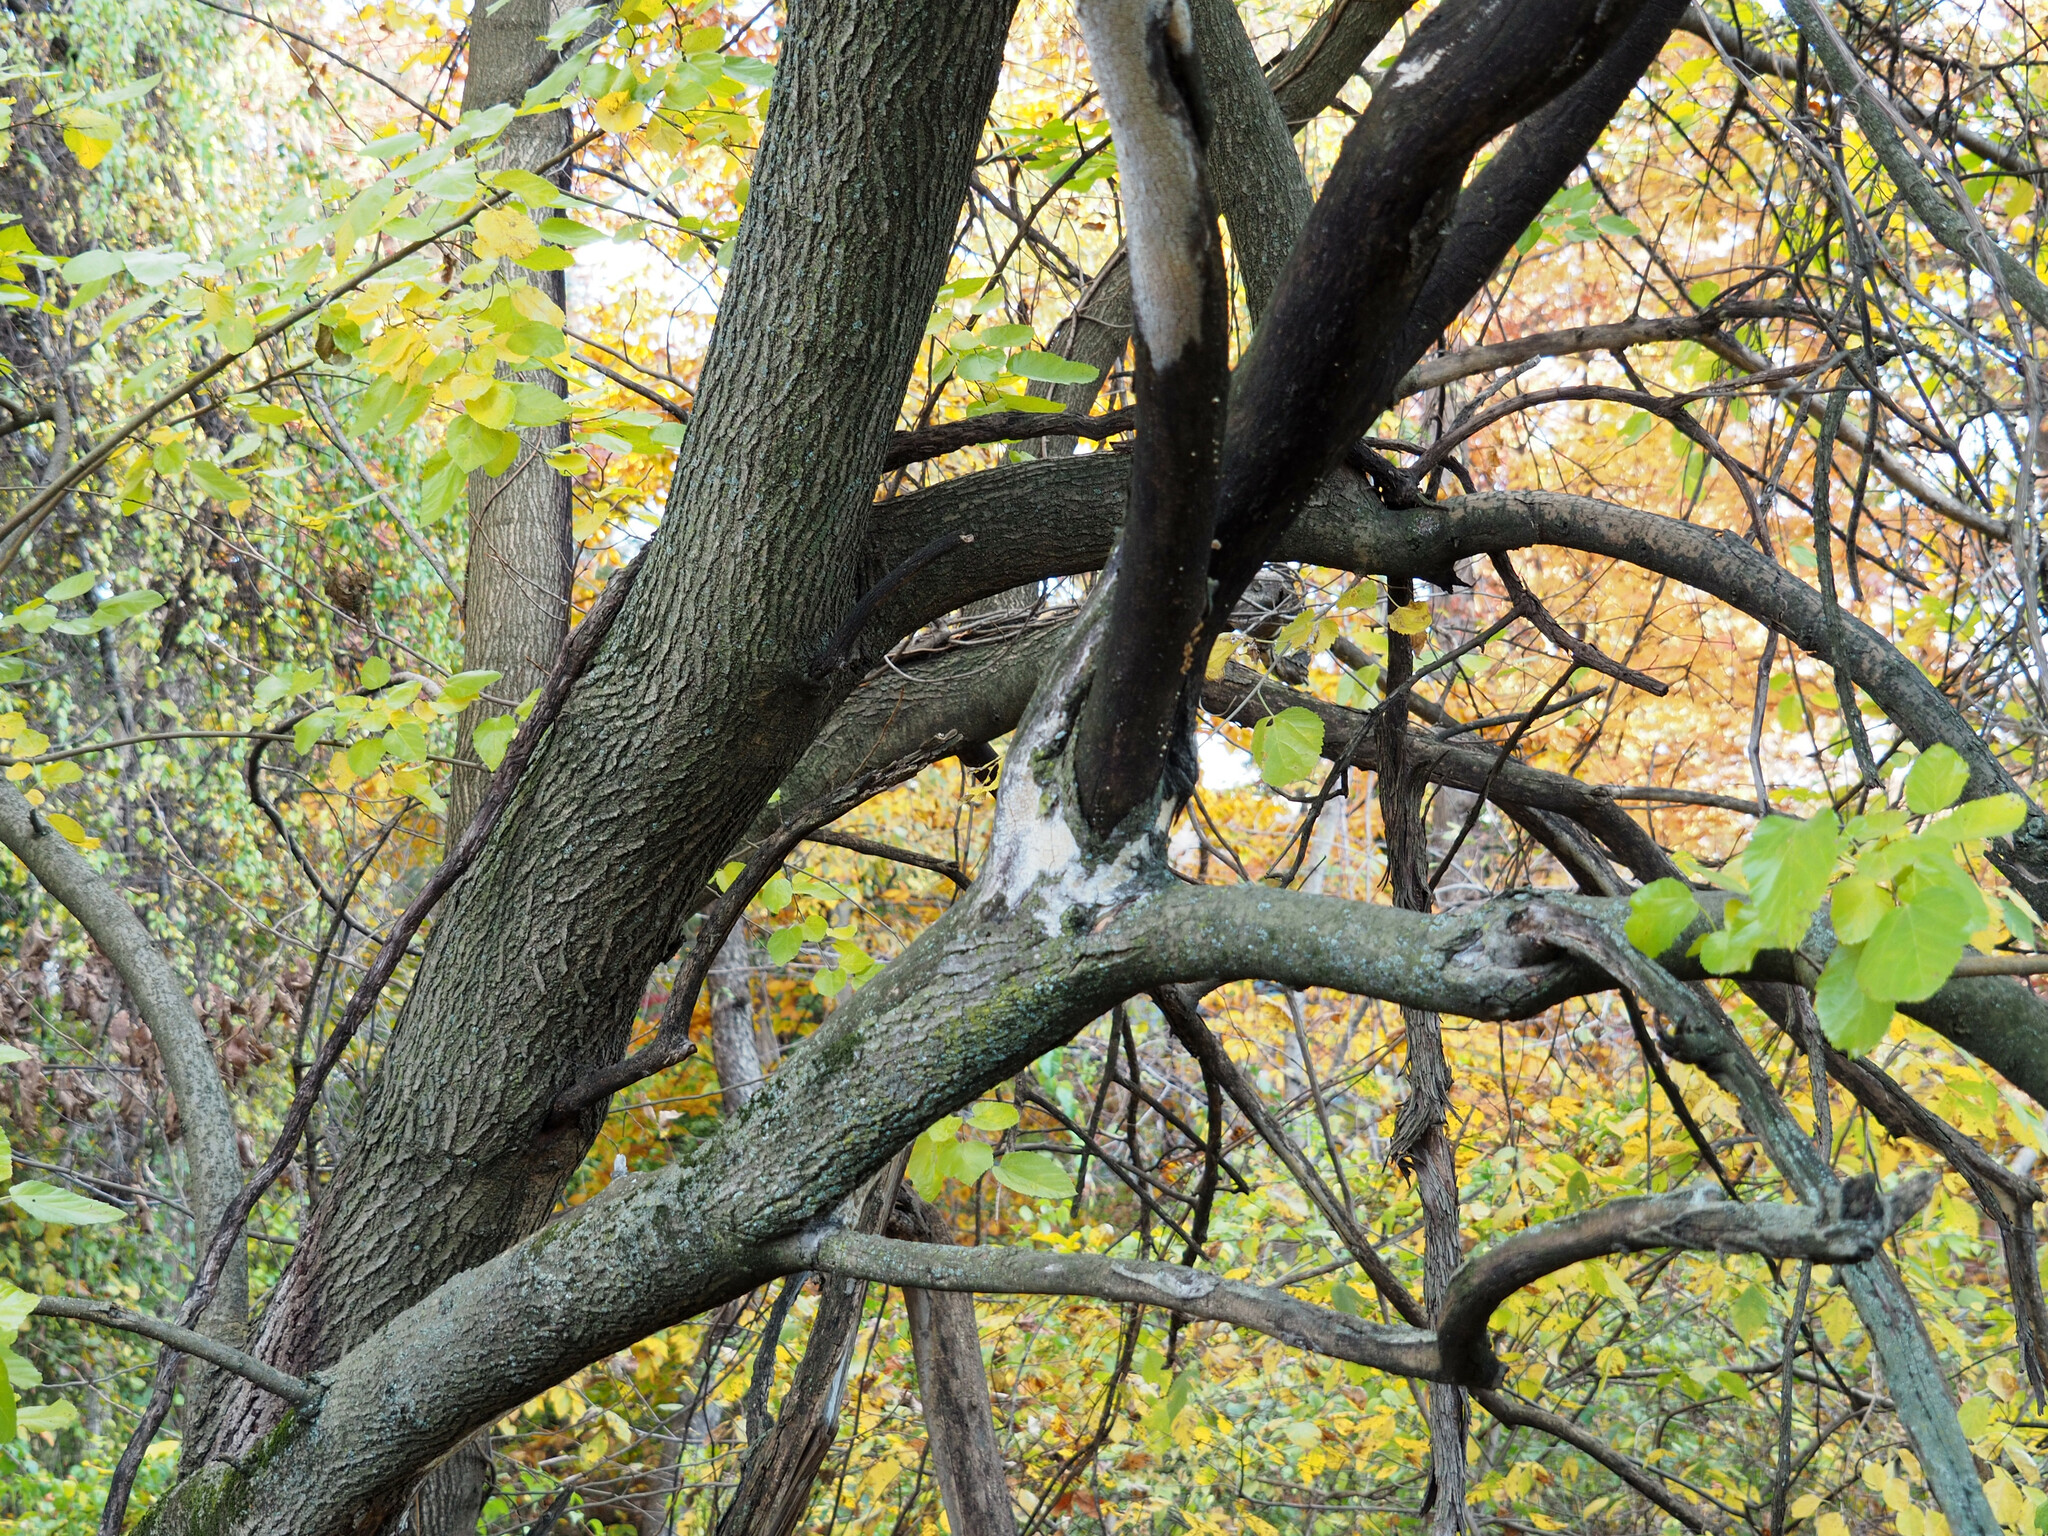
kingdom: Plantae
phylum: Tracheophyta
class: Magnoliopsida
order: Rosales
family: Moraceae
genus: Morus
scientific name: Morus alba
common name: White mulberry
